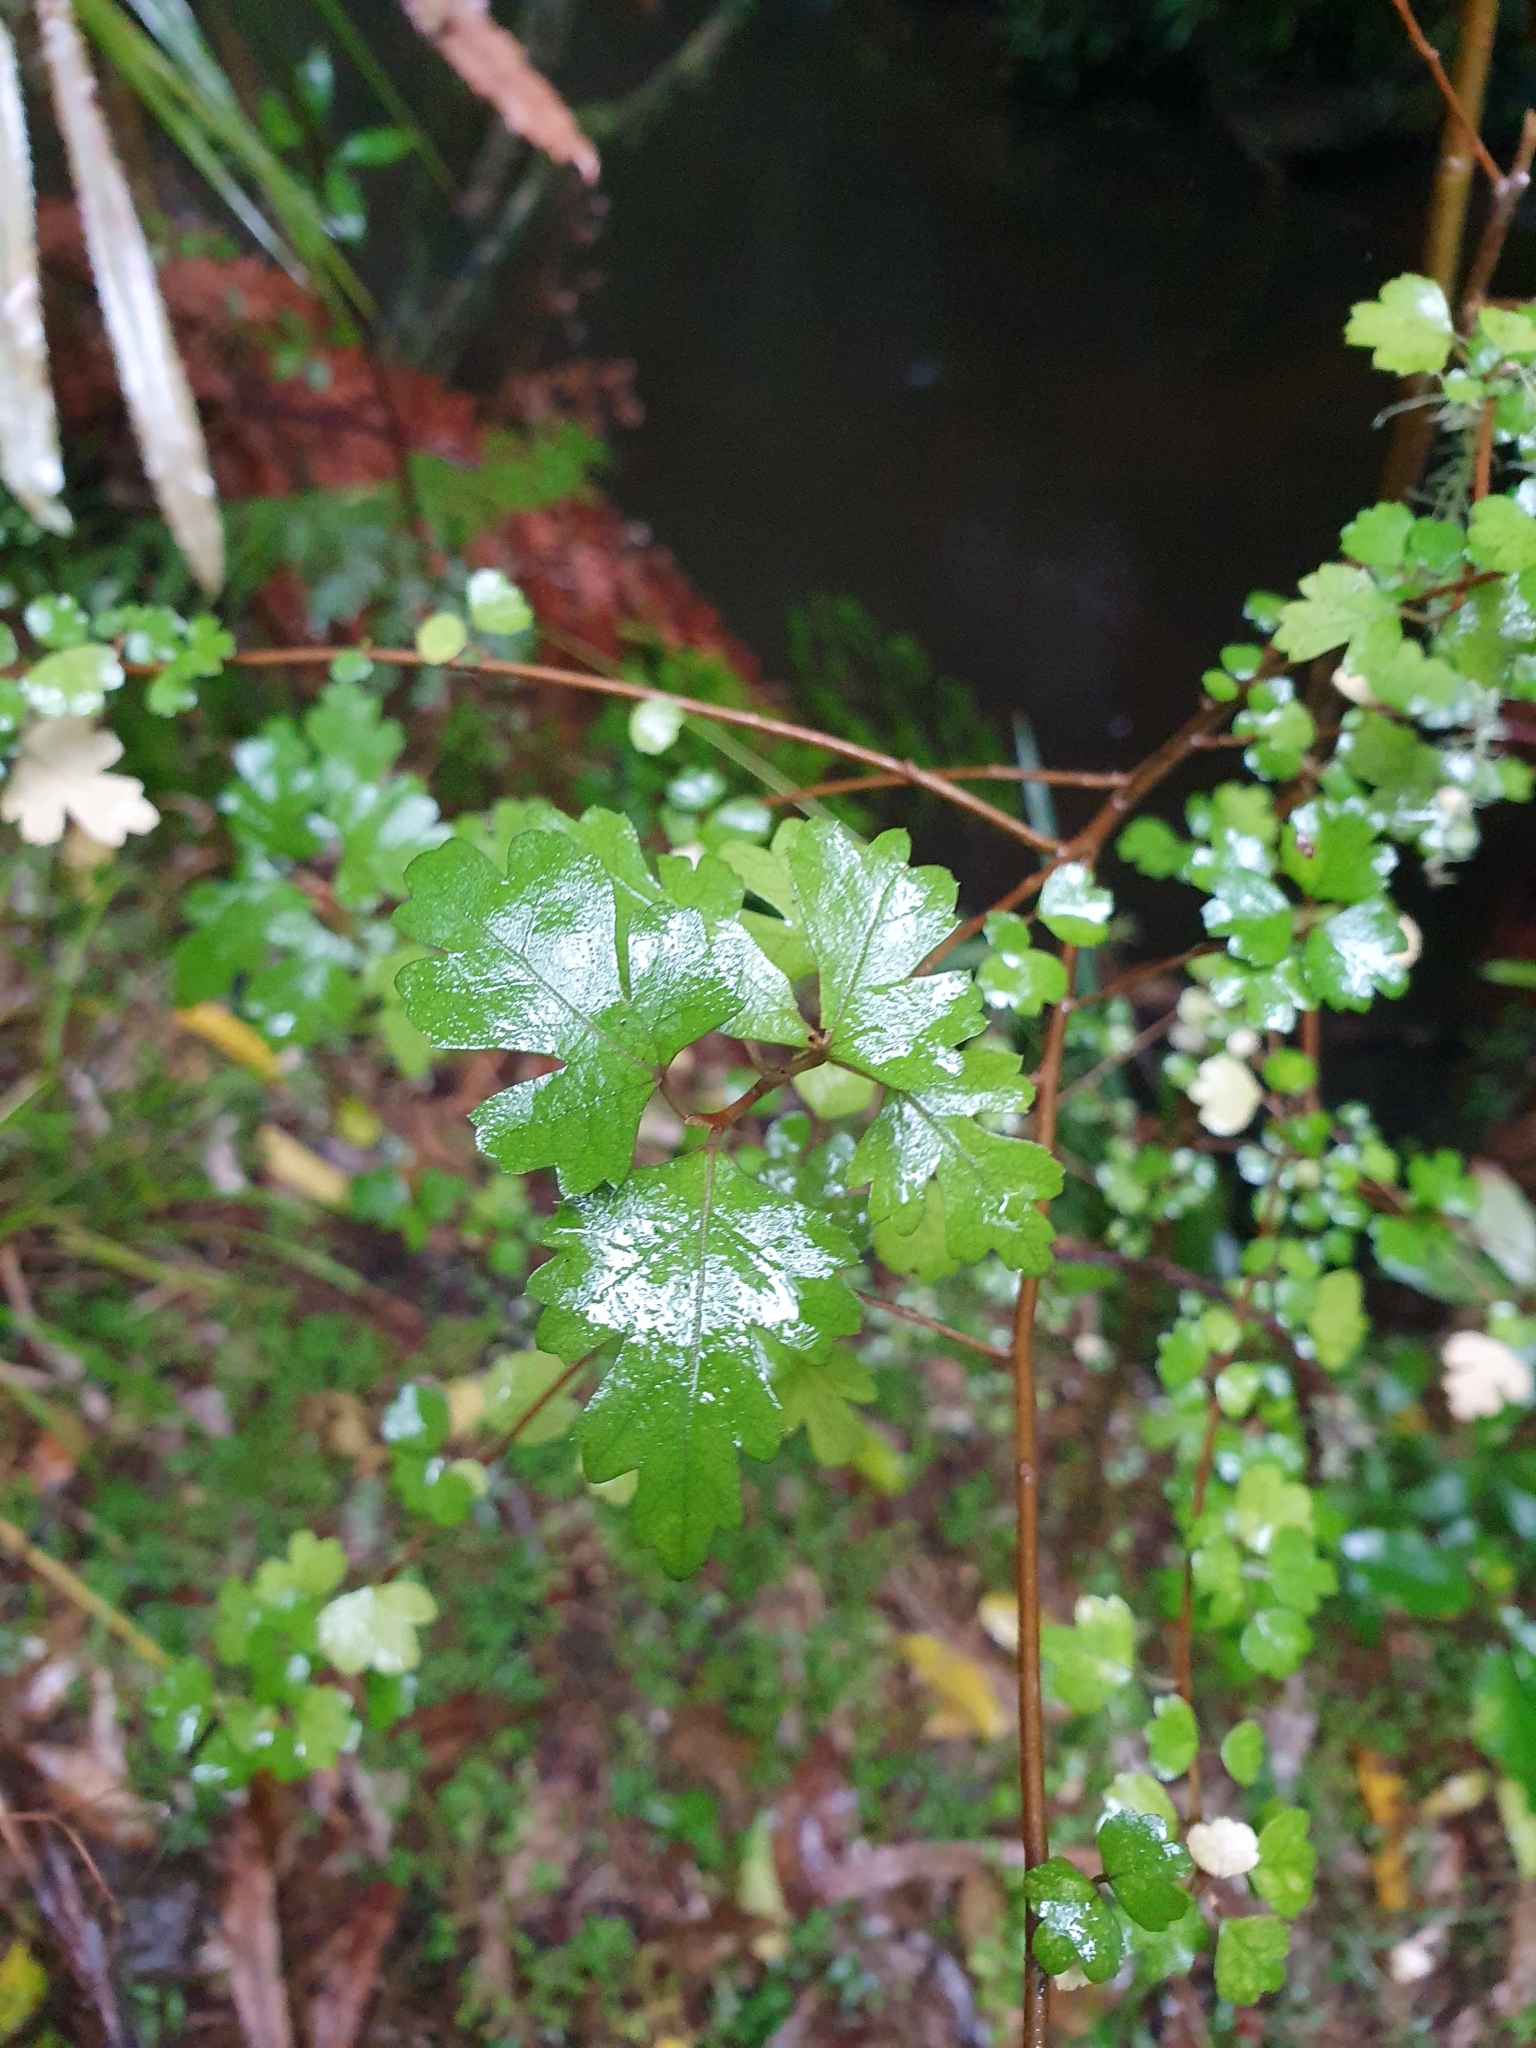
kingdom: Plantae
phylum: Tracheophyta
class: Magnoliopsida
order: Malvales
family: Malvaceae
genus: Hoheria
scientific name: Hoheria sexstylosa
